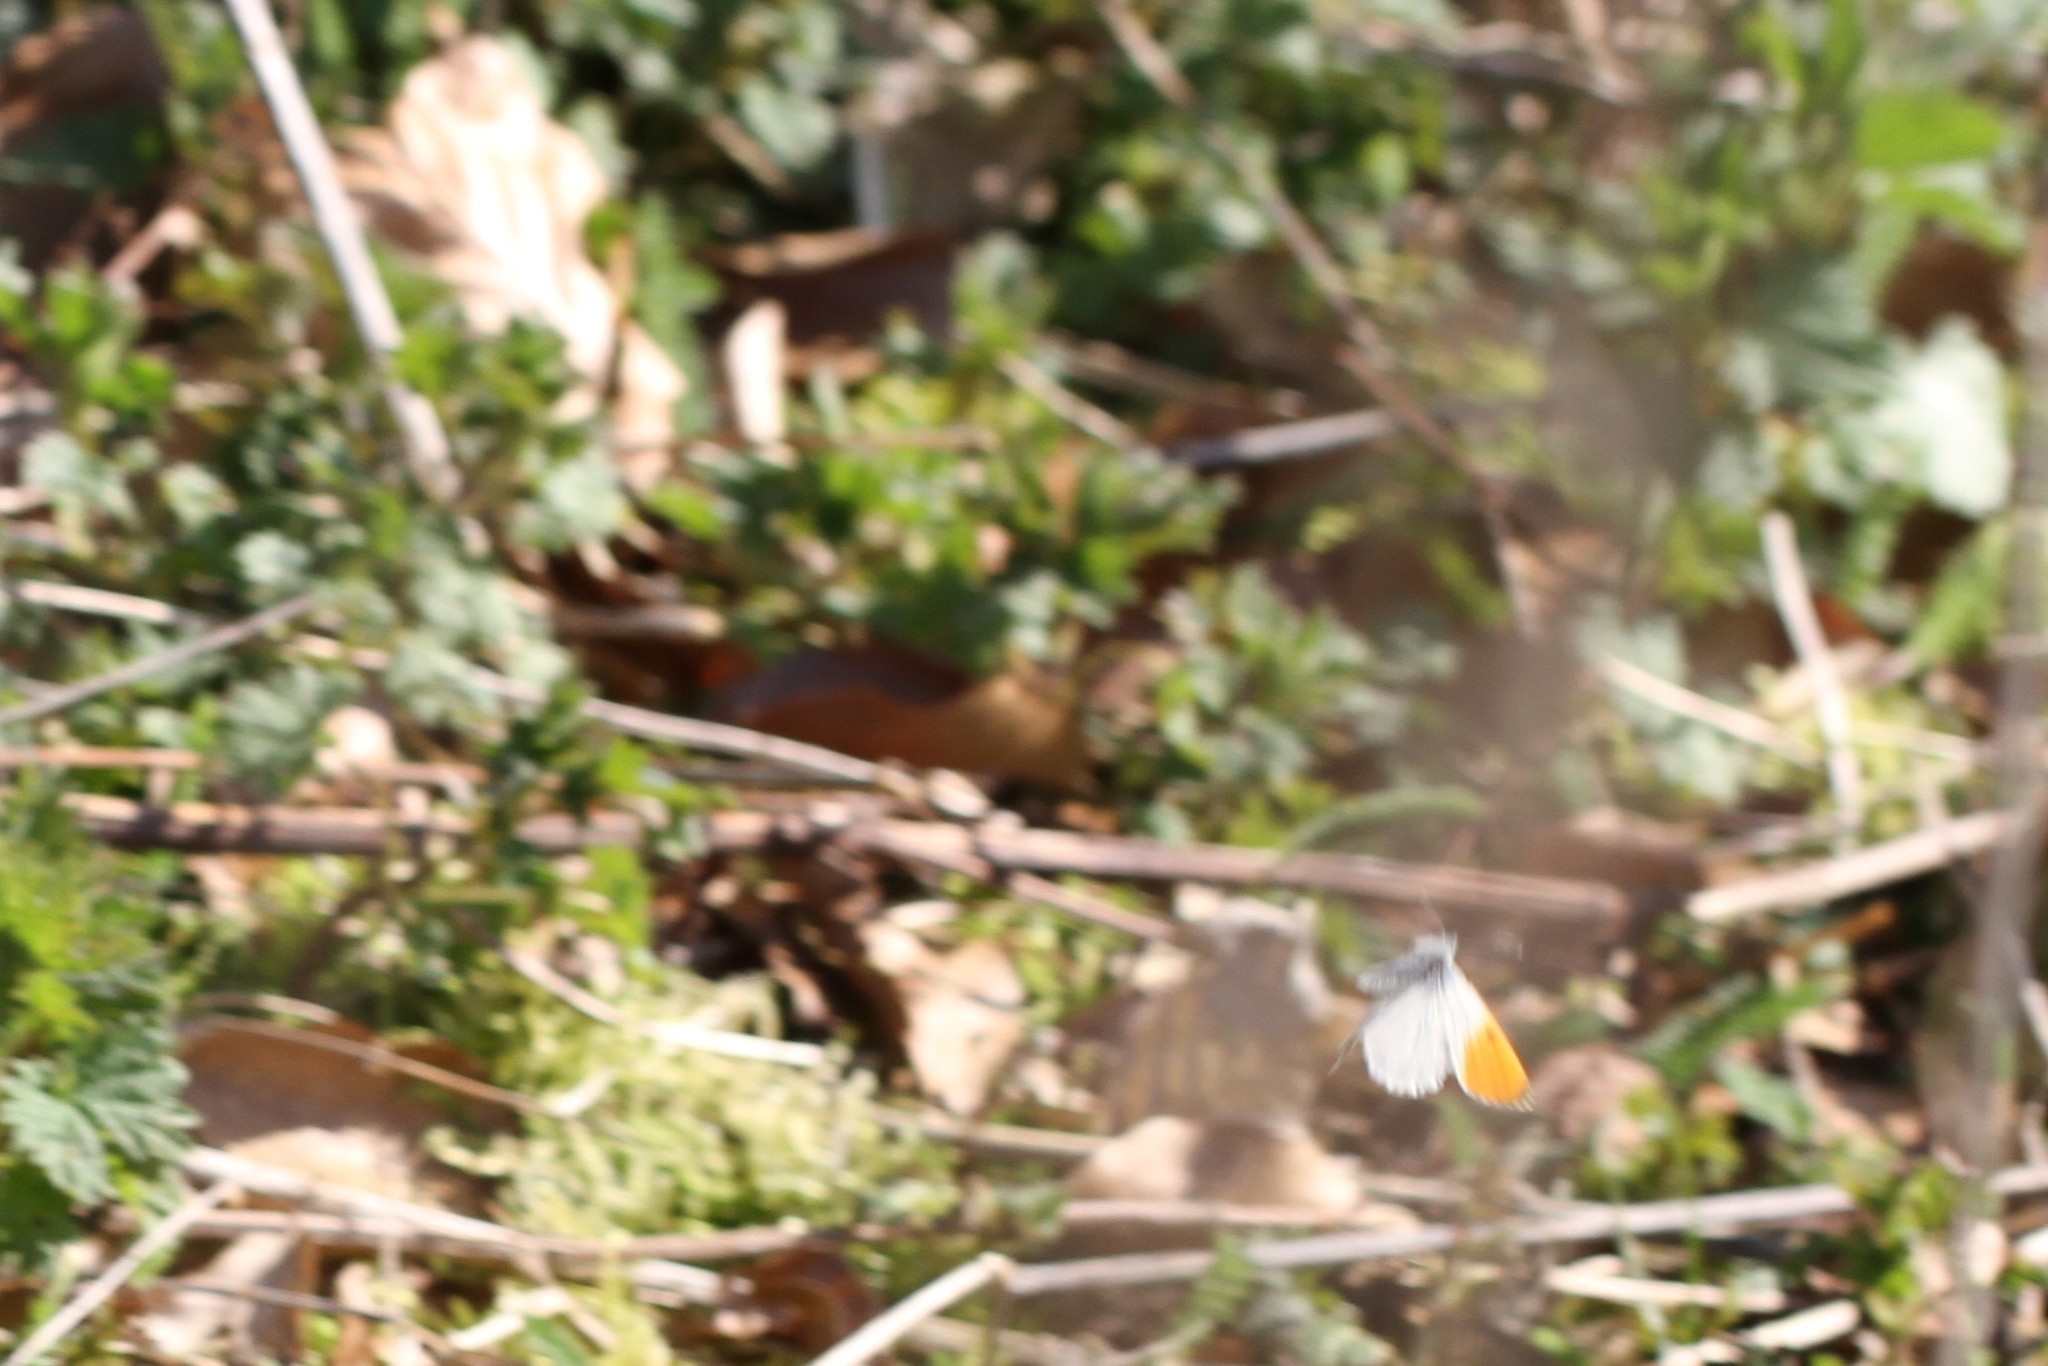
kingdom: Animalia
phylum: Arthropoda
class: Insecta
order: Lepidoptera
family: Pieridae
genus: Anthocharis
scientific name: Anthocharis cardamines
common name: Orange-tip
